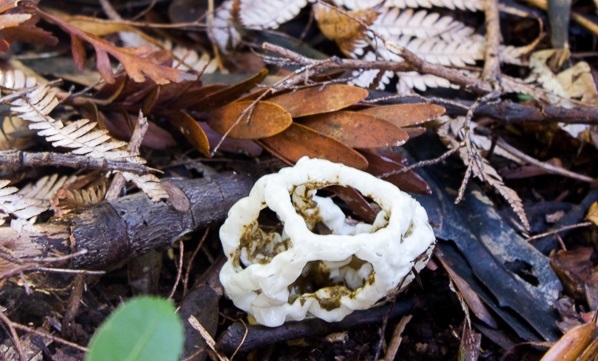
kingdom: Fungi
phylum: Basidiomycota
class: Agaricomycetes
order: Phallales
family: Phallaceae
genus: Ileodictyon
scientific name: Ileodictyon cibarium
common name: Basket fungus
